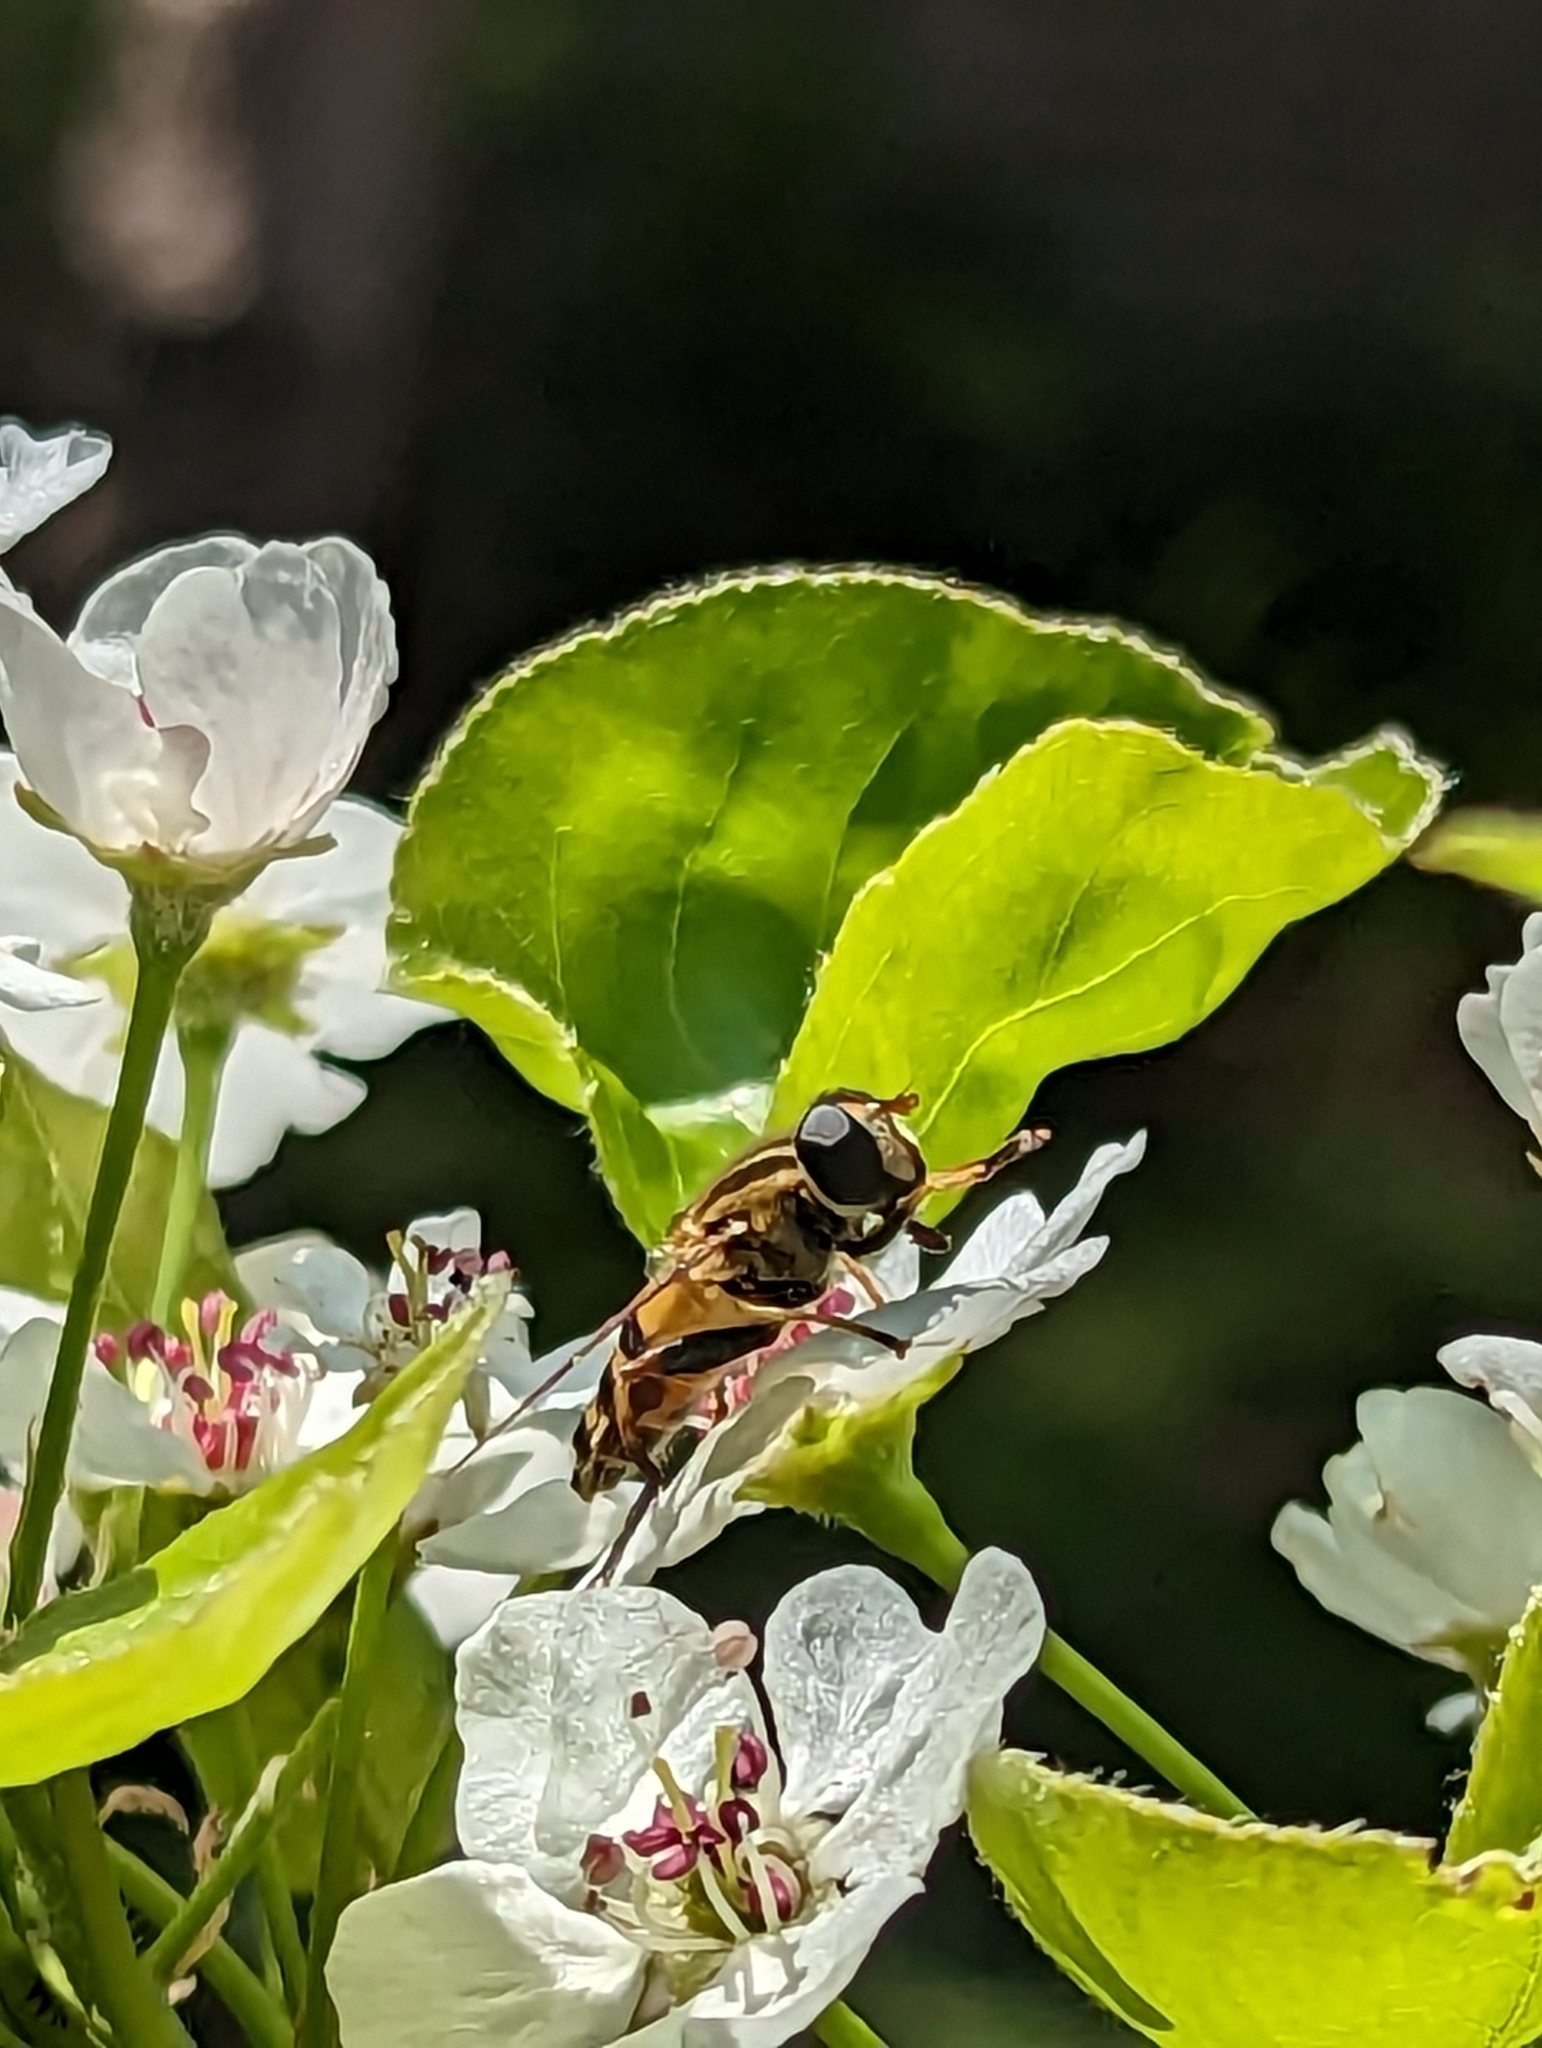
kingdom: Animalia
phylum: Arthropoda
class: Insecta
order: Diptera
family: Syrphidae
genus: Helophilus
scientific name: Helophilus fasciatus
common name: Narrow-headed marsh fly
